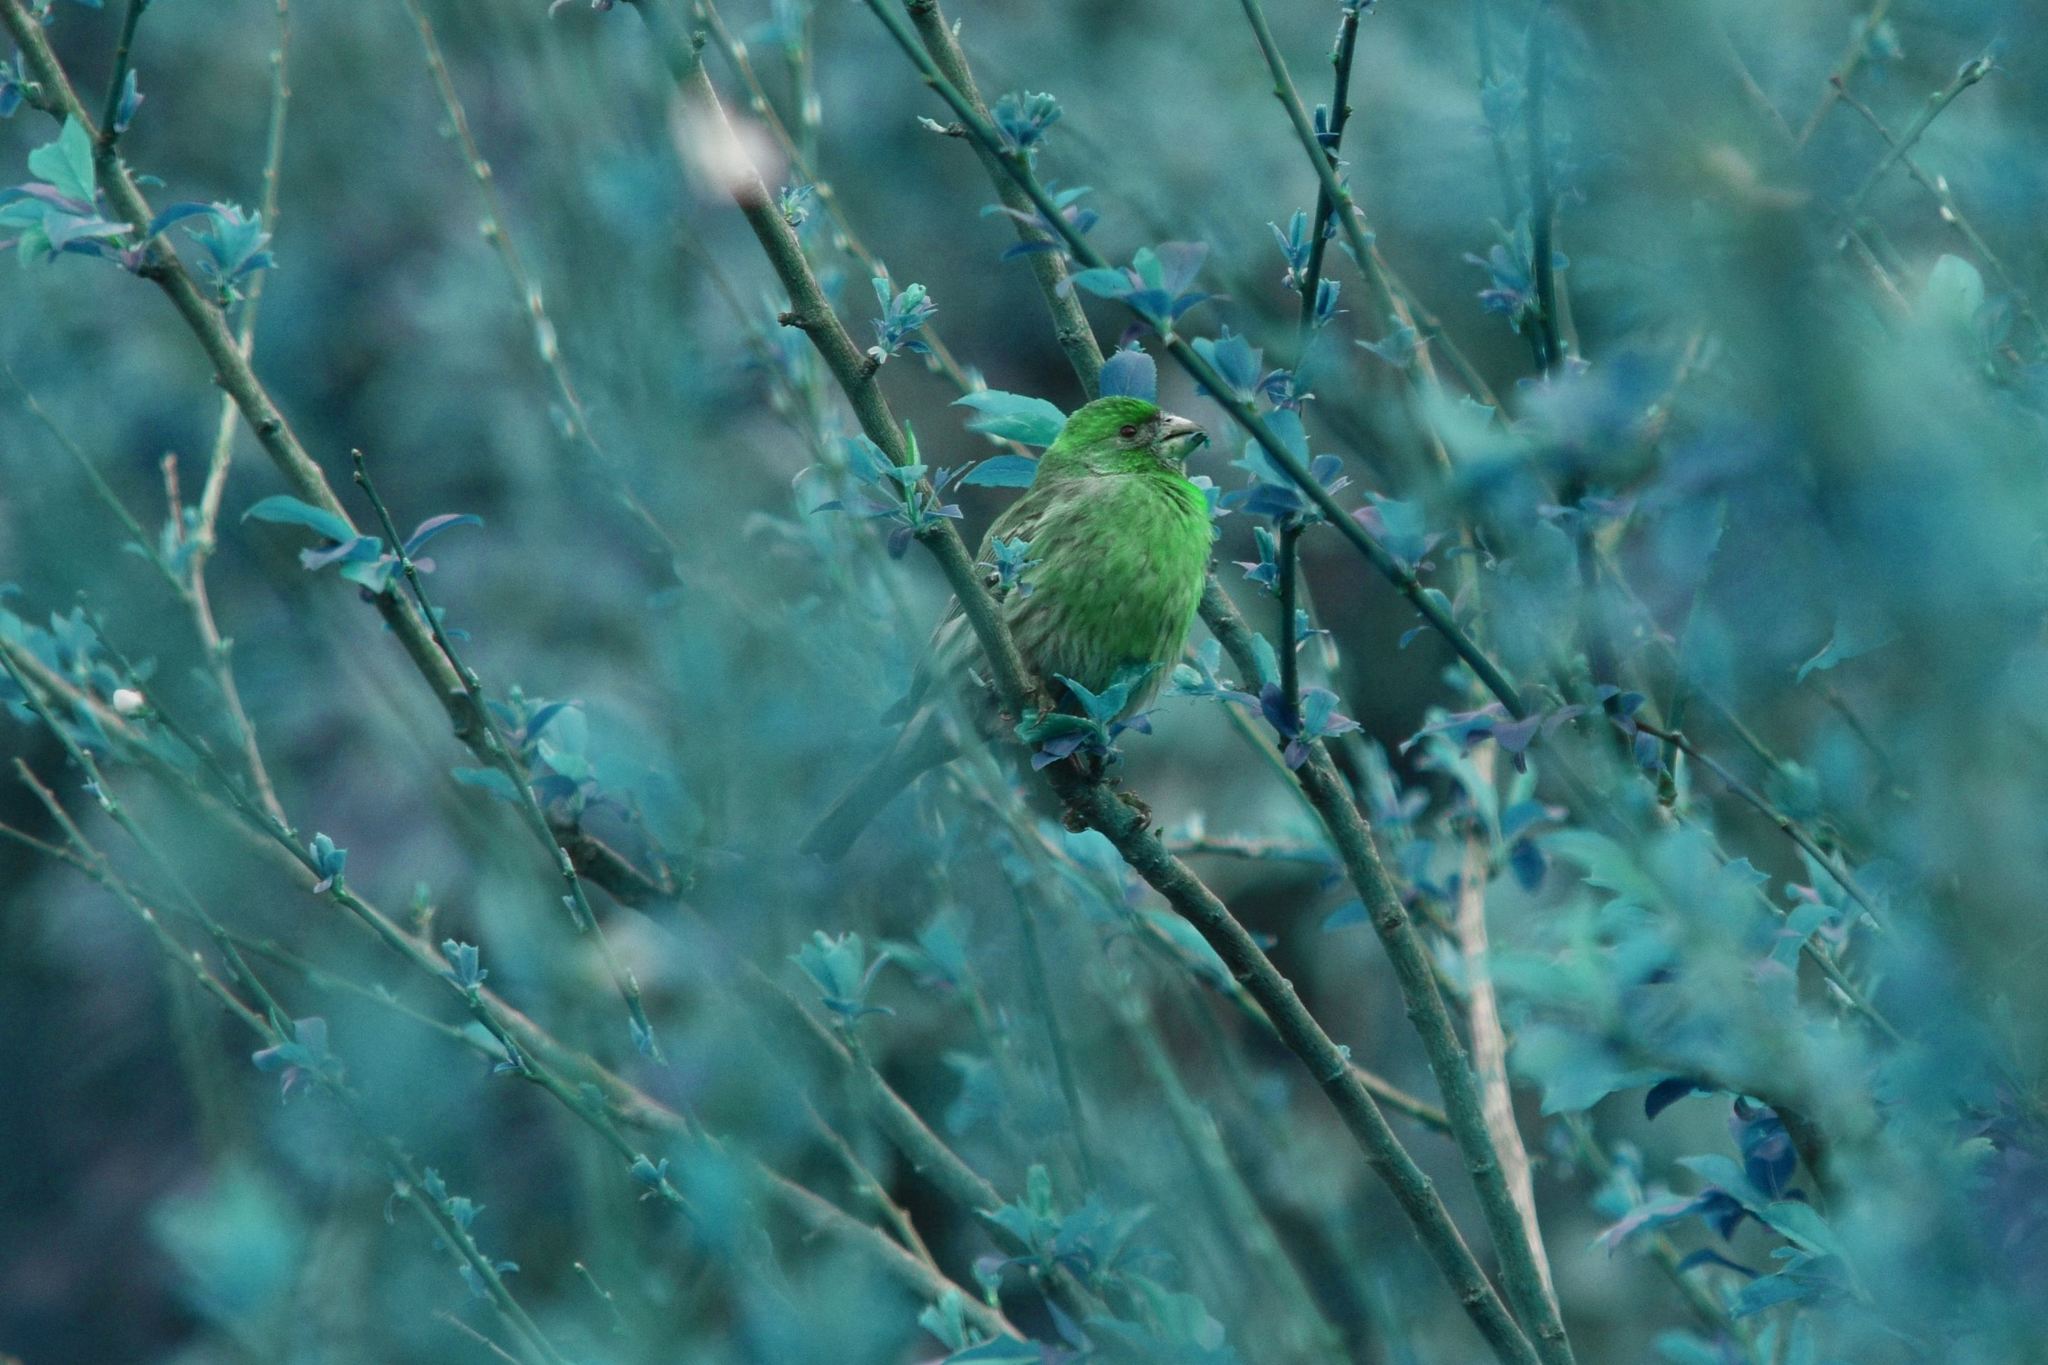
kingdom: Animalia
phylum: Chordata
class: Aves
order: Passeriformes
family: Fringillidae
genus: Haemorhous
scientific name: Haemorhous mexicanus
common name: House finch
